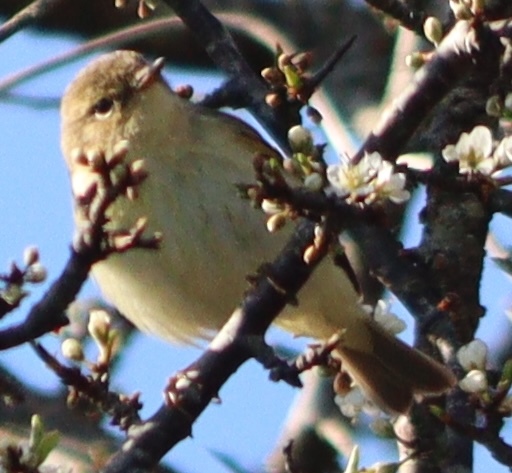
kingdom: Animalia
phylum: Chordata
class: Aves
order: Passeriformes
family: Phylloscopidae
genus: Phylloscopus
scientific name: Phylloscopus collybita
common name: Common chiffchaff
